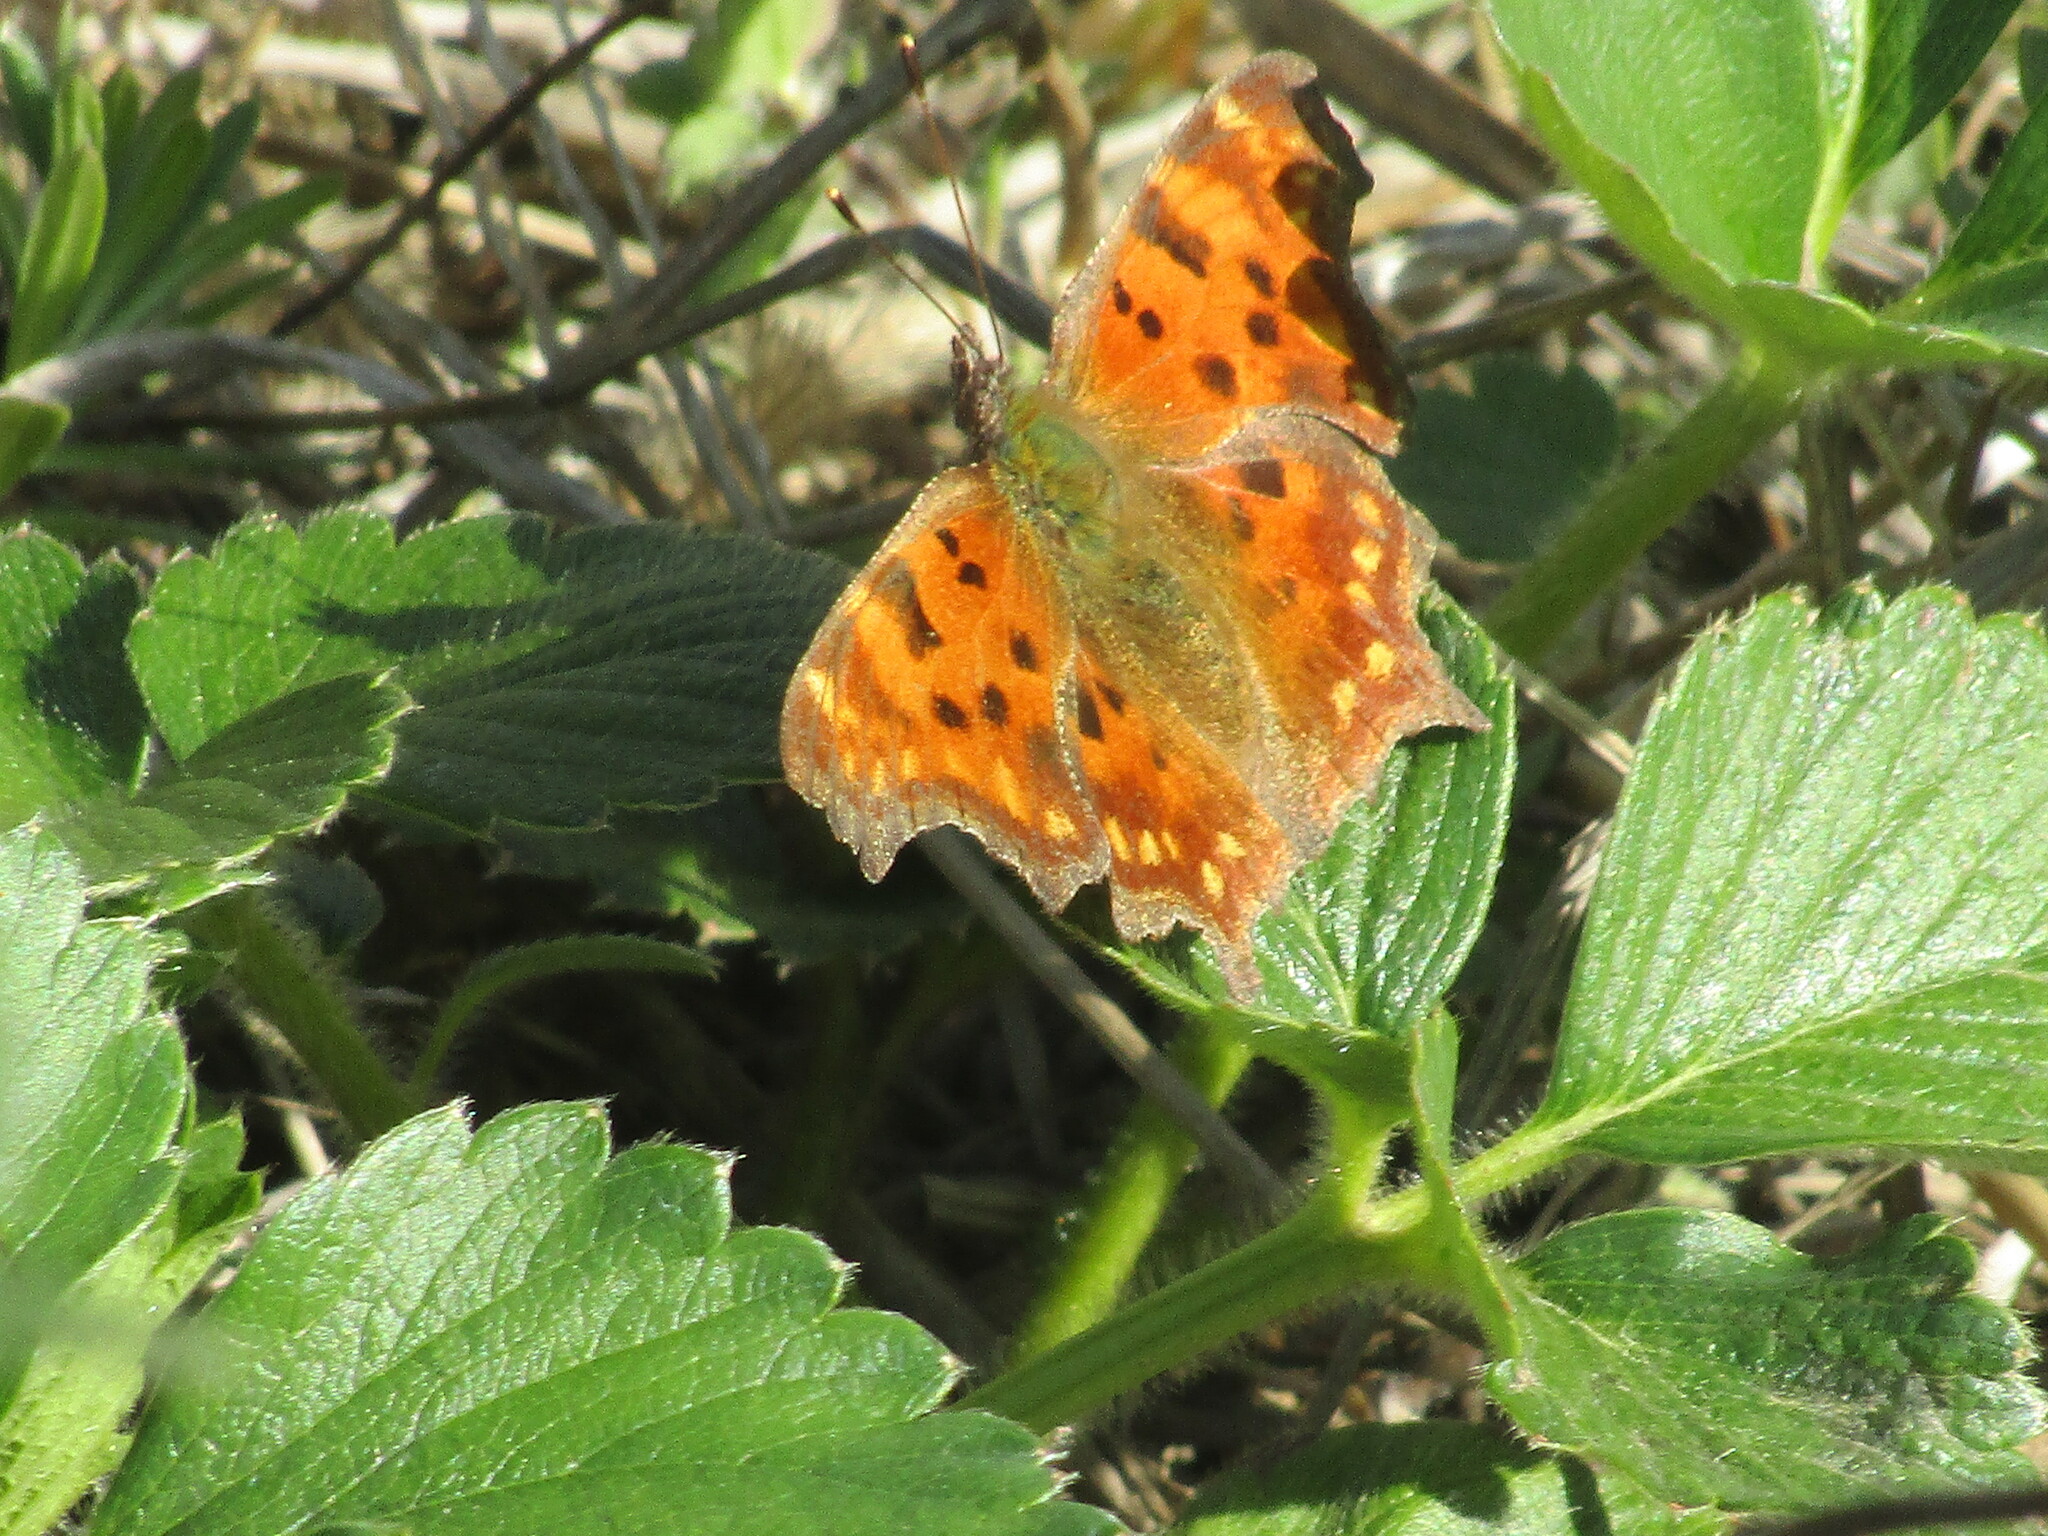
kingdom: Animalia
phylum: Arthropoda
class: Insecta
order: Lepidoptera
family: Nymphalidae
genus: Polygonia
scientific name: Polygonia c-album
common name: Comma
